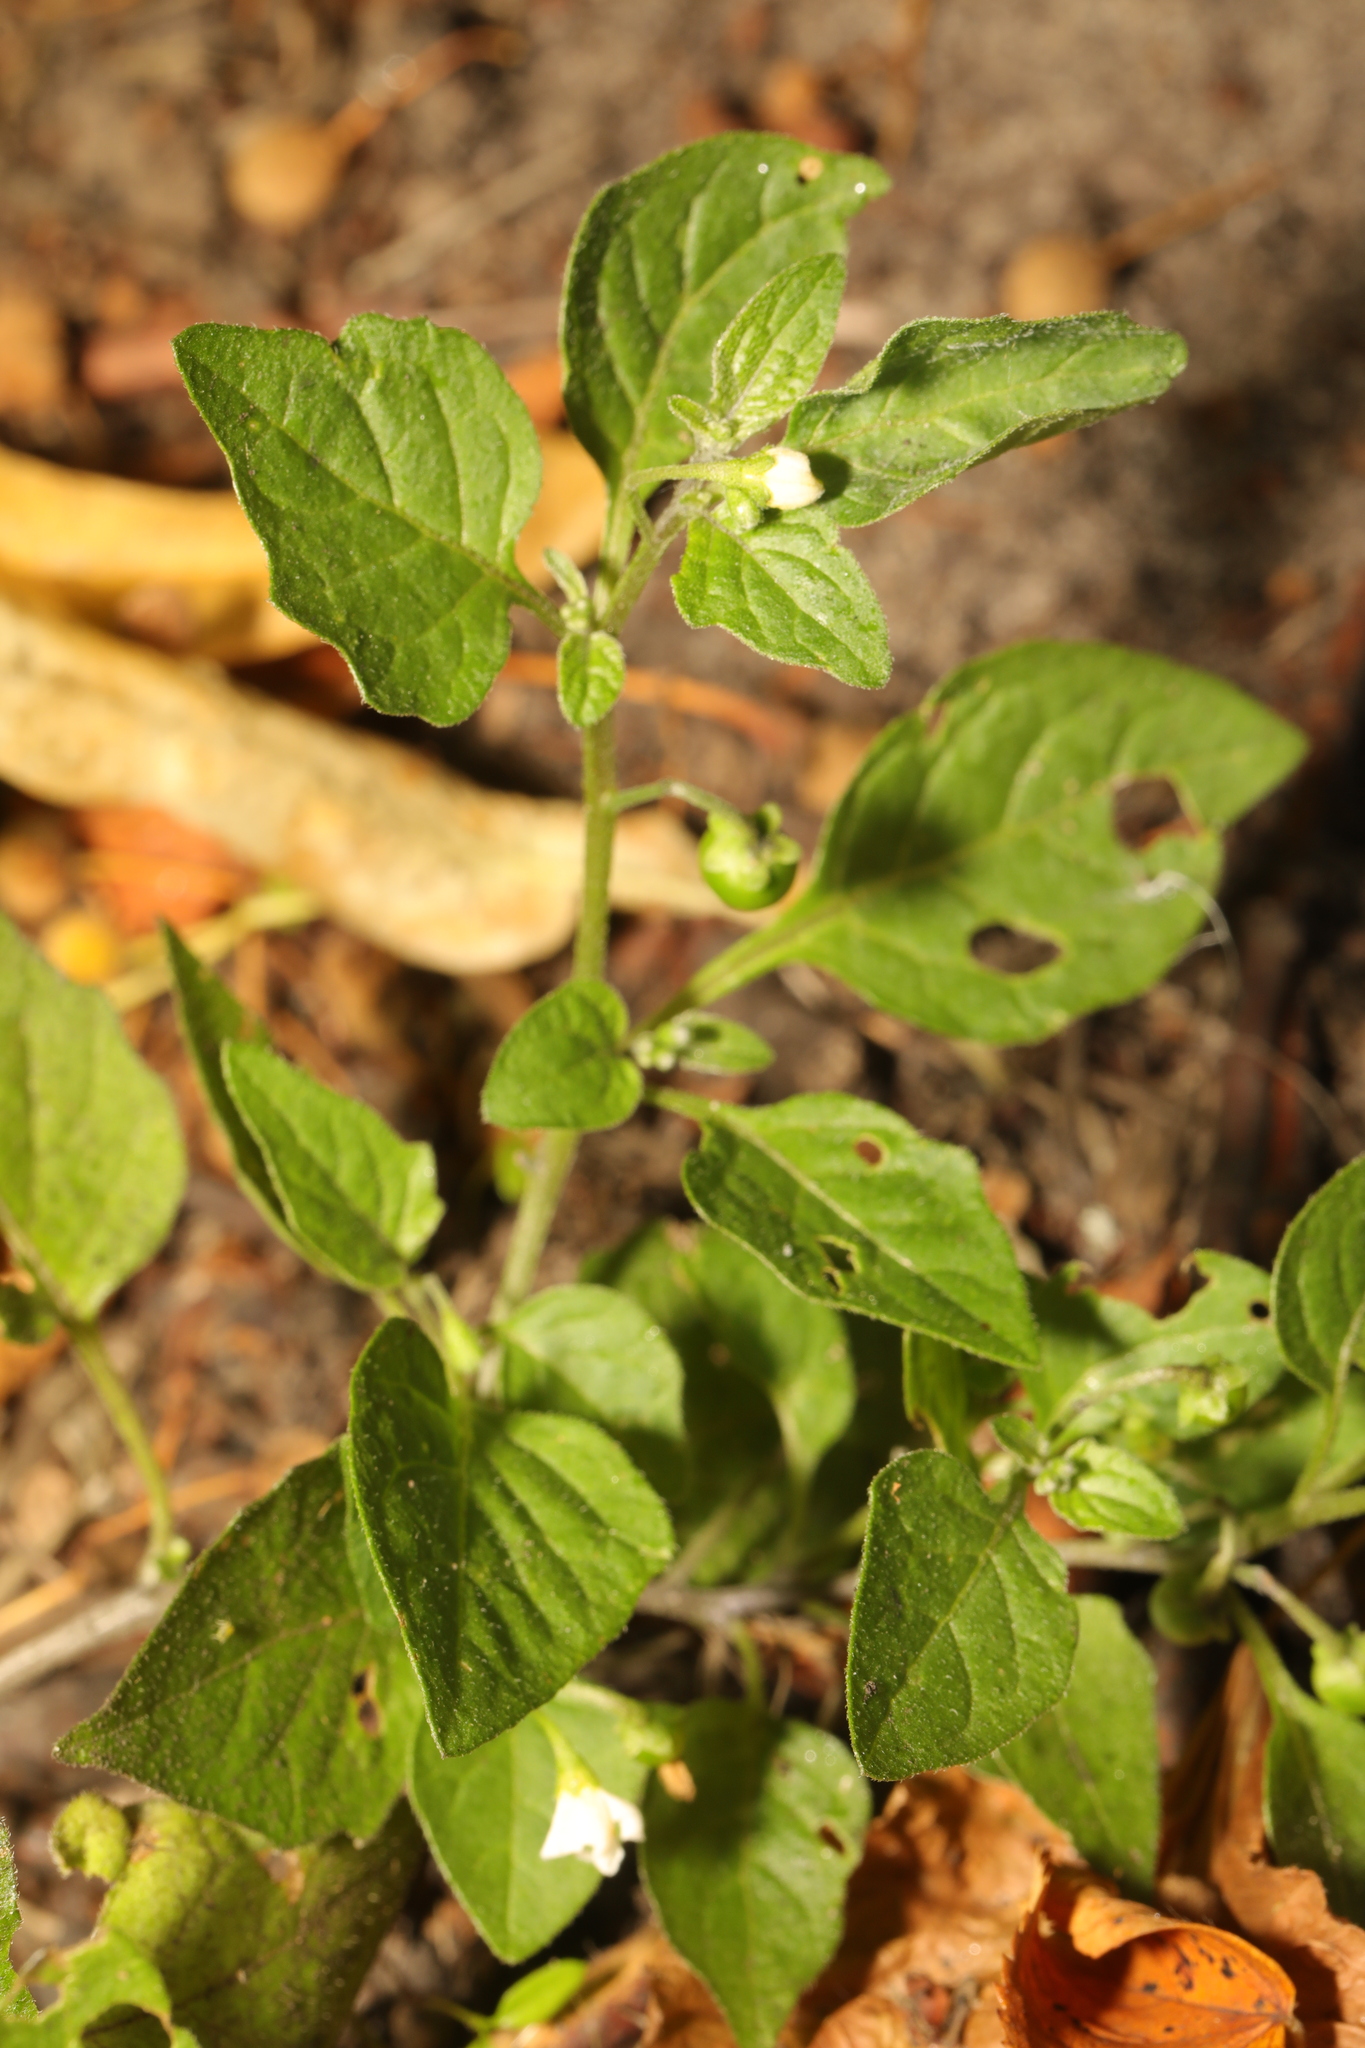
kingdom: Plantae
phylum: Tracheophyta
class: Magnoliopsida
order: Solanales
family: Solanaceae
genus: Solanum
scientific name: Solanum nigrum
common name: Black nightshade
